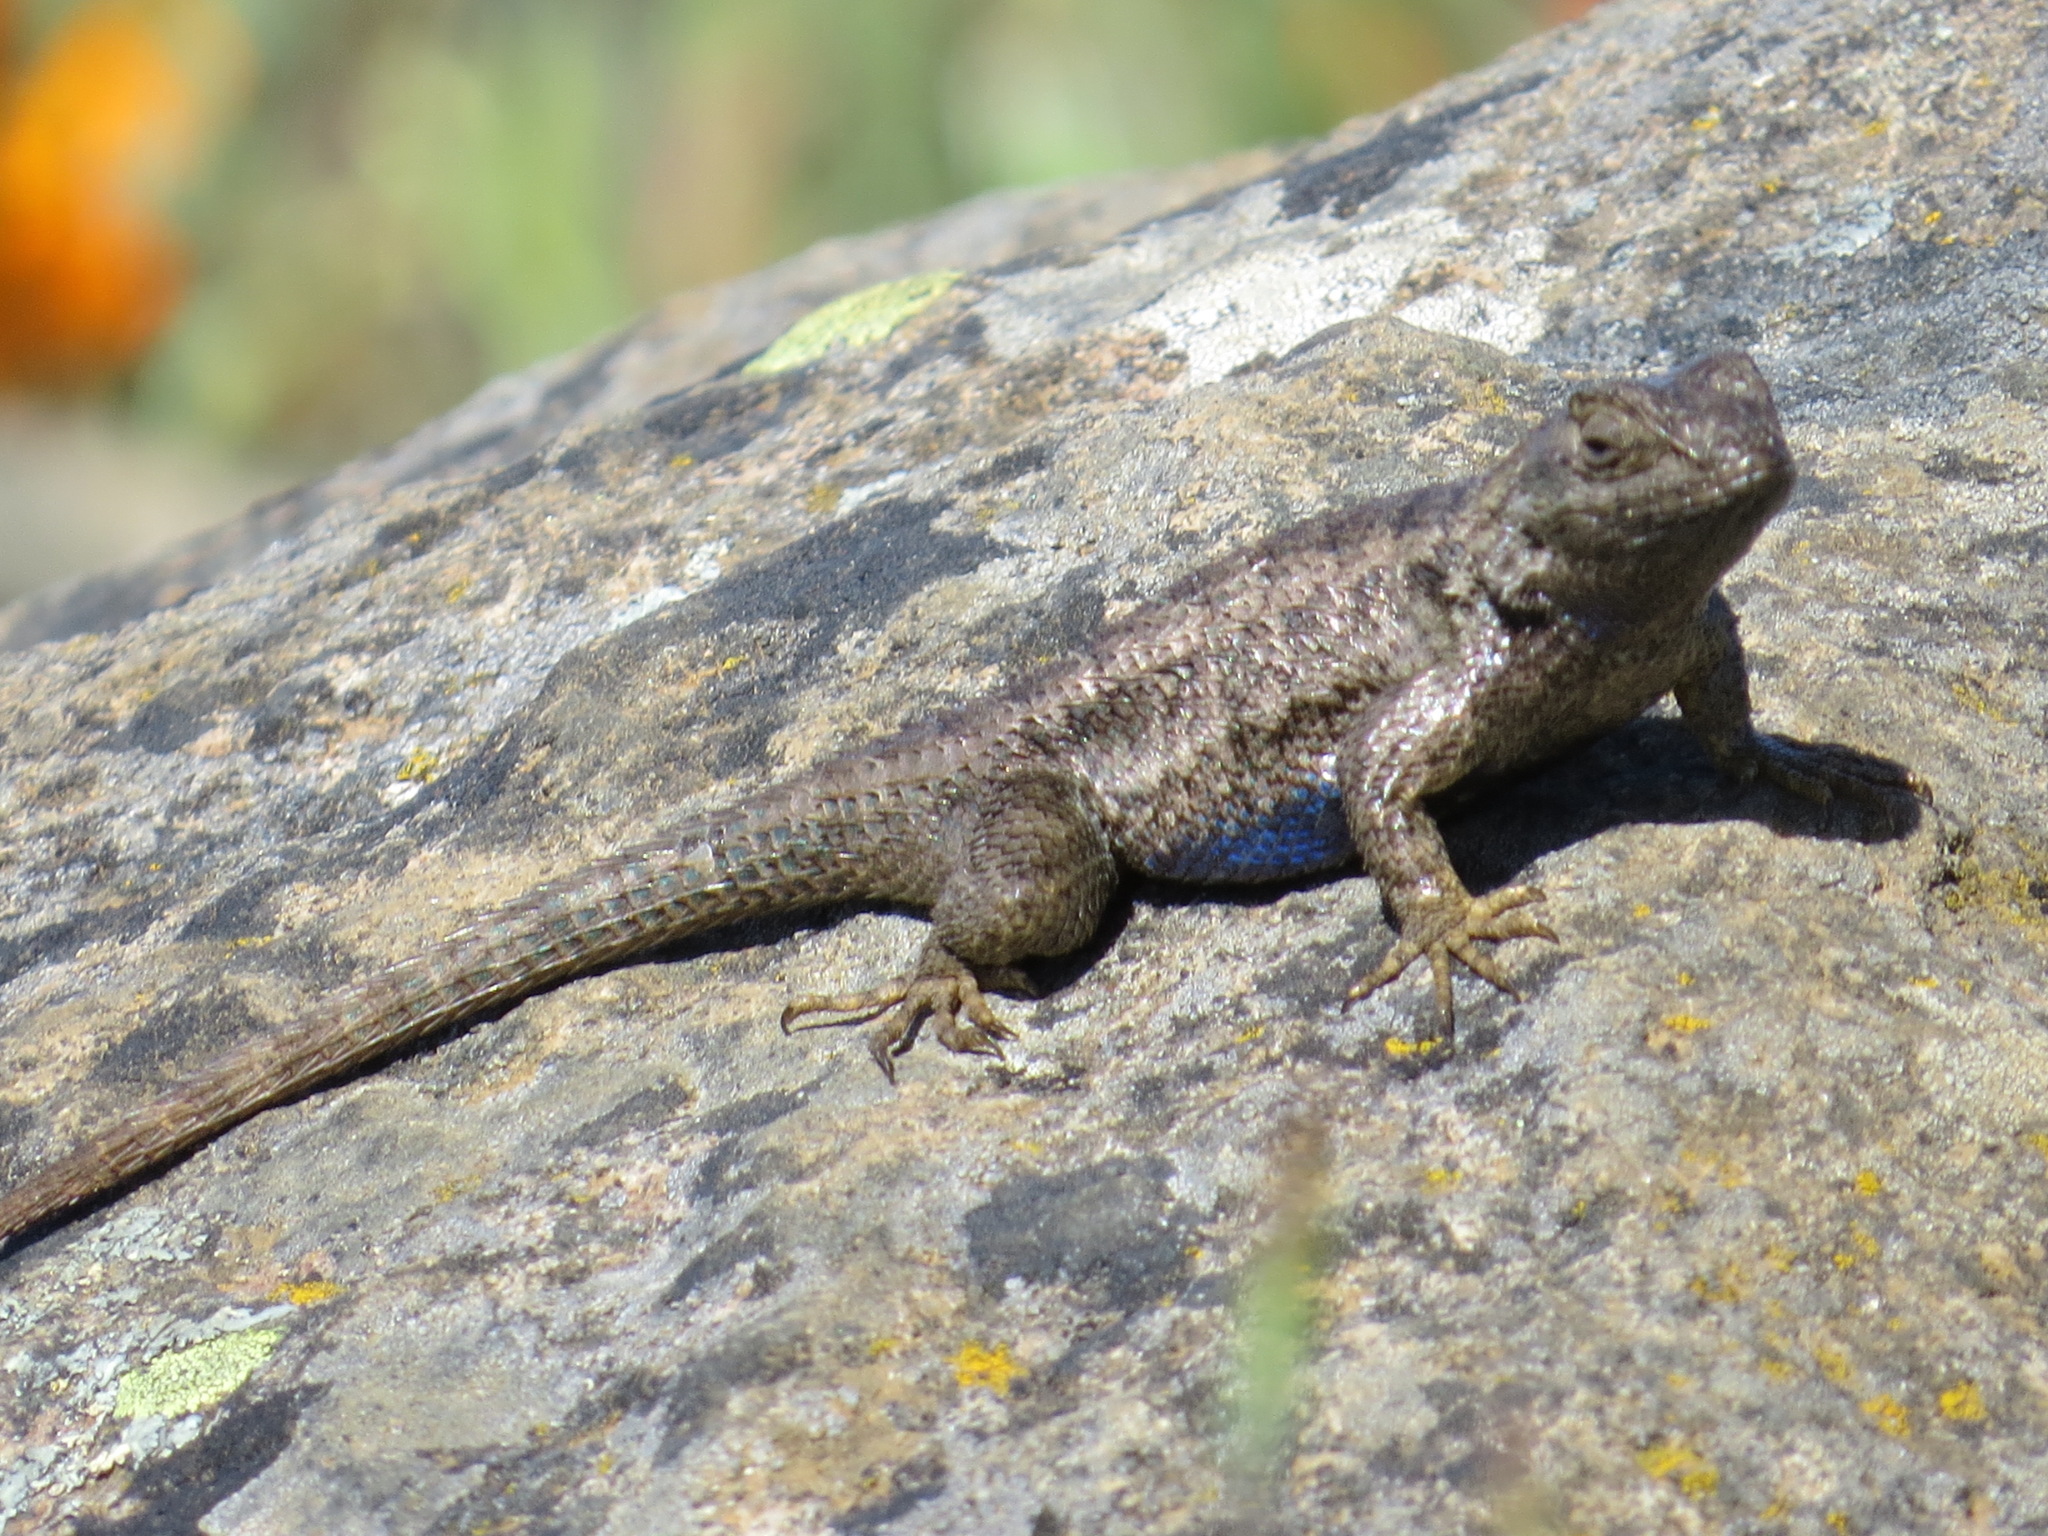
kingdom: Animalia
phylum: Chordata
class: Squamata
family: Phrynosomatidae
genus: Sceloporus
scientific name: Sceloporus occidentalis
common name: Western fence lizard
